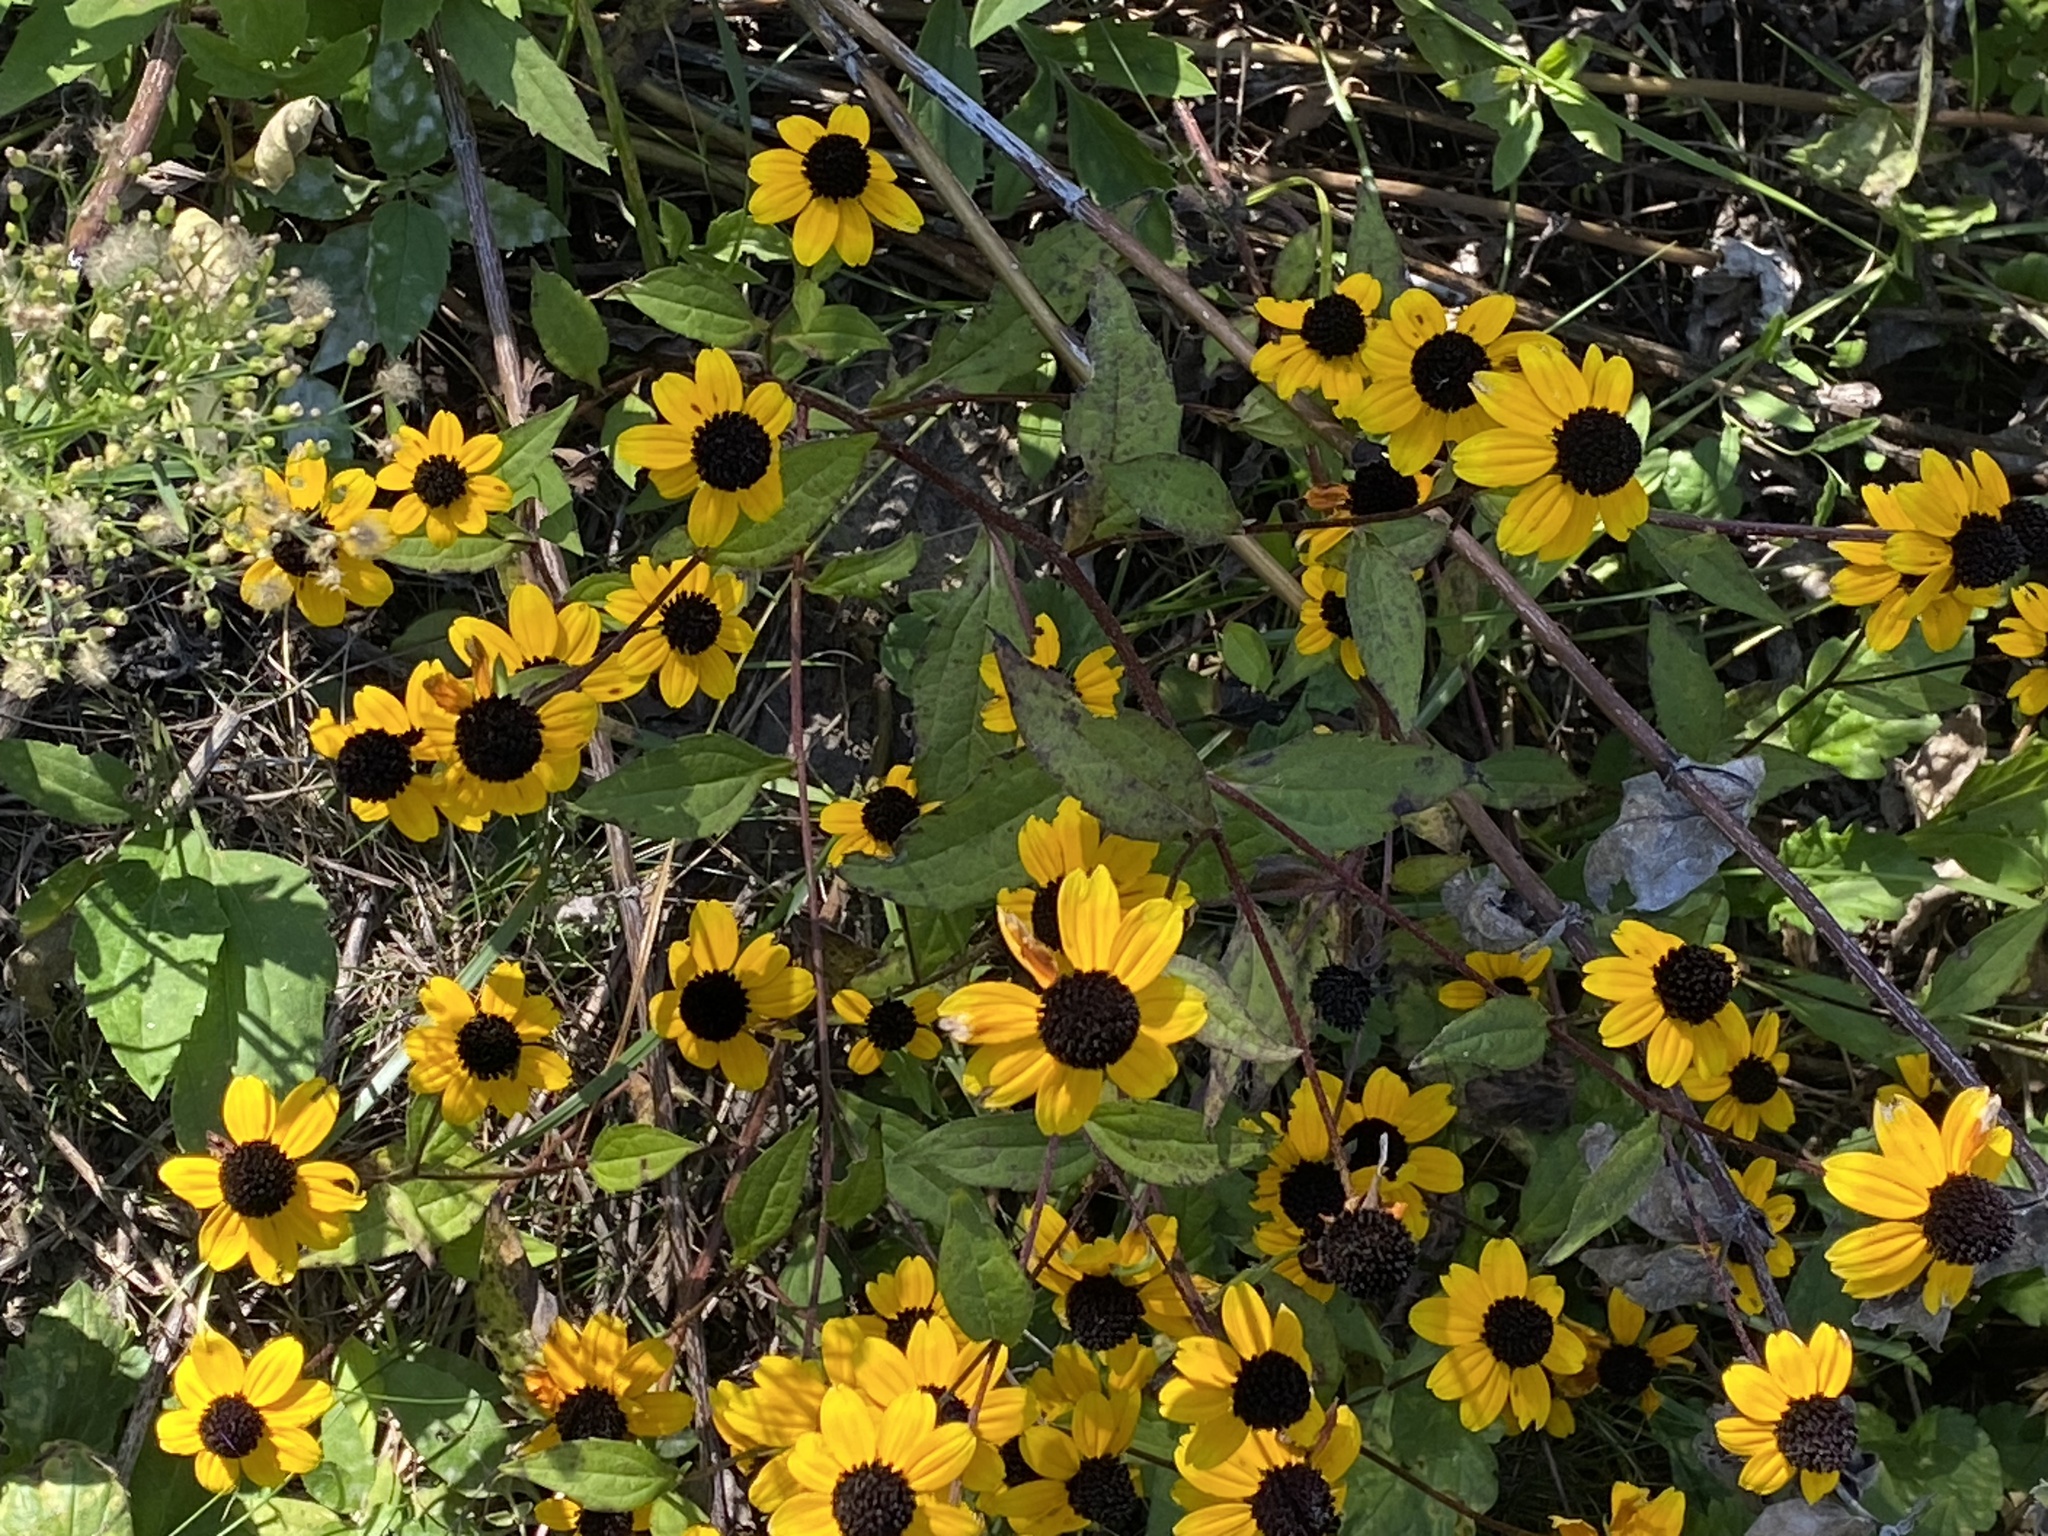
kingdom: Plantae
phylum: Tracheophyta
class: Magnoliopsida
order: Asterales
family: Asteraceae
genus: Rudbeckia
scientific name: Rudbeckia triloba
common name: Thin-leaved coneflower
